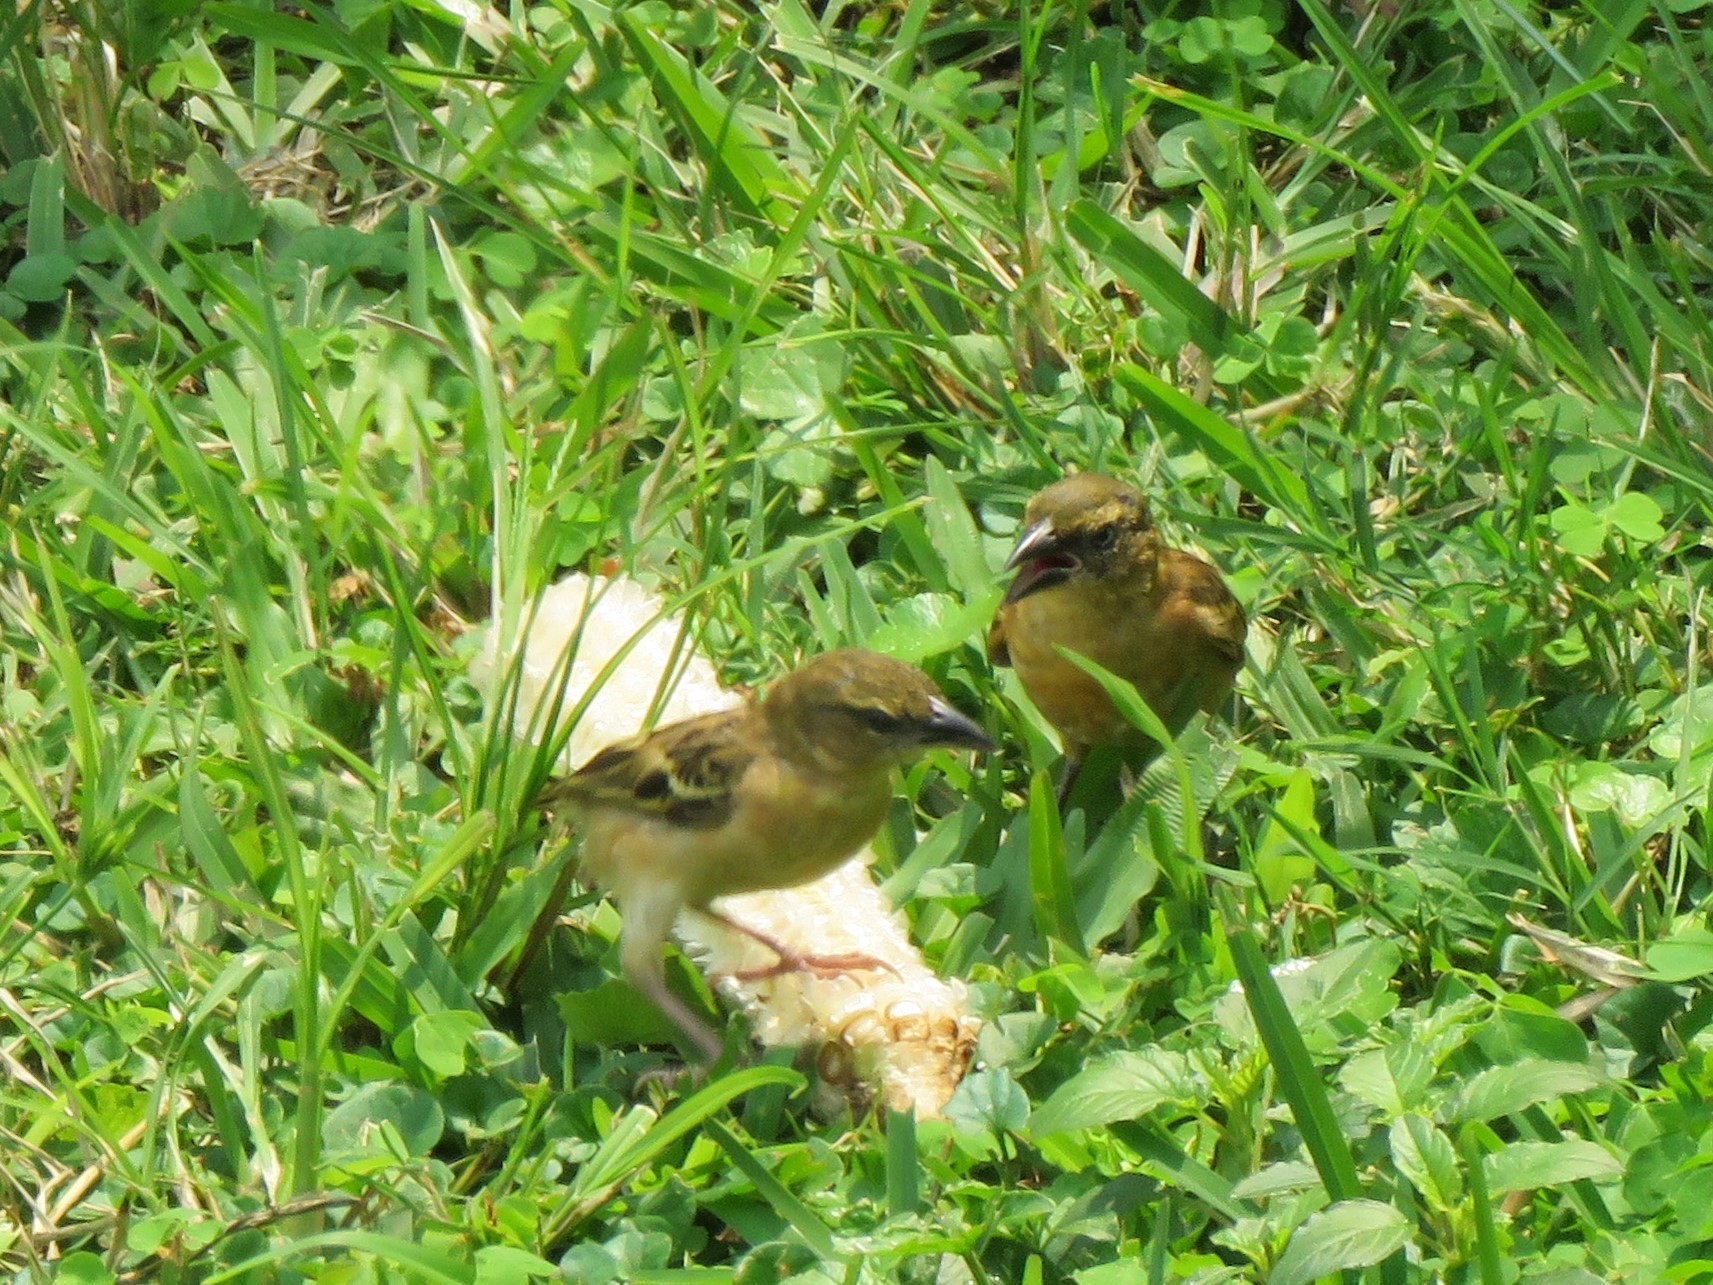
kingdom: Animalia
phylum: Chordata
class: Aves
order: Passeriformes
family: Ploceidae
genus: Ploceus
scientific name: Ploceus cucullatus
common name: Village weaver
